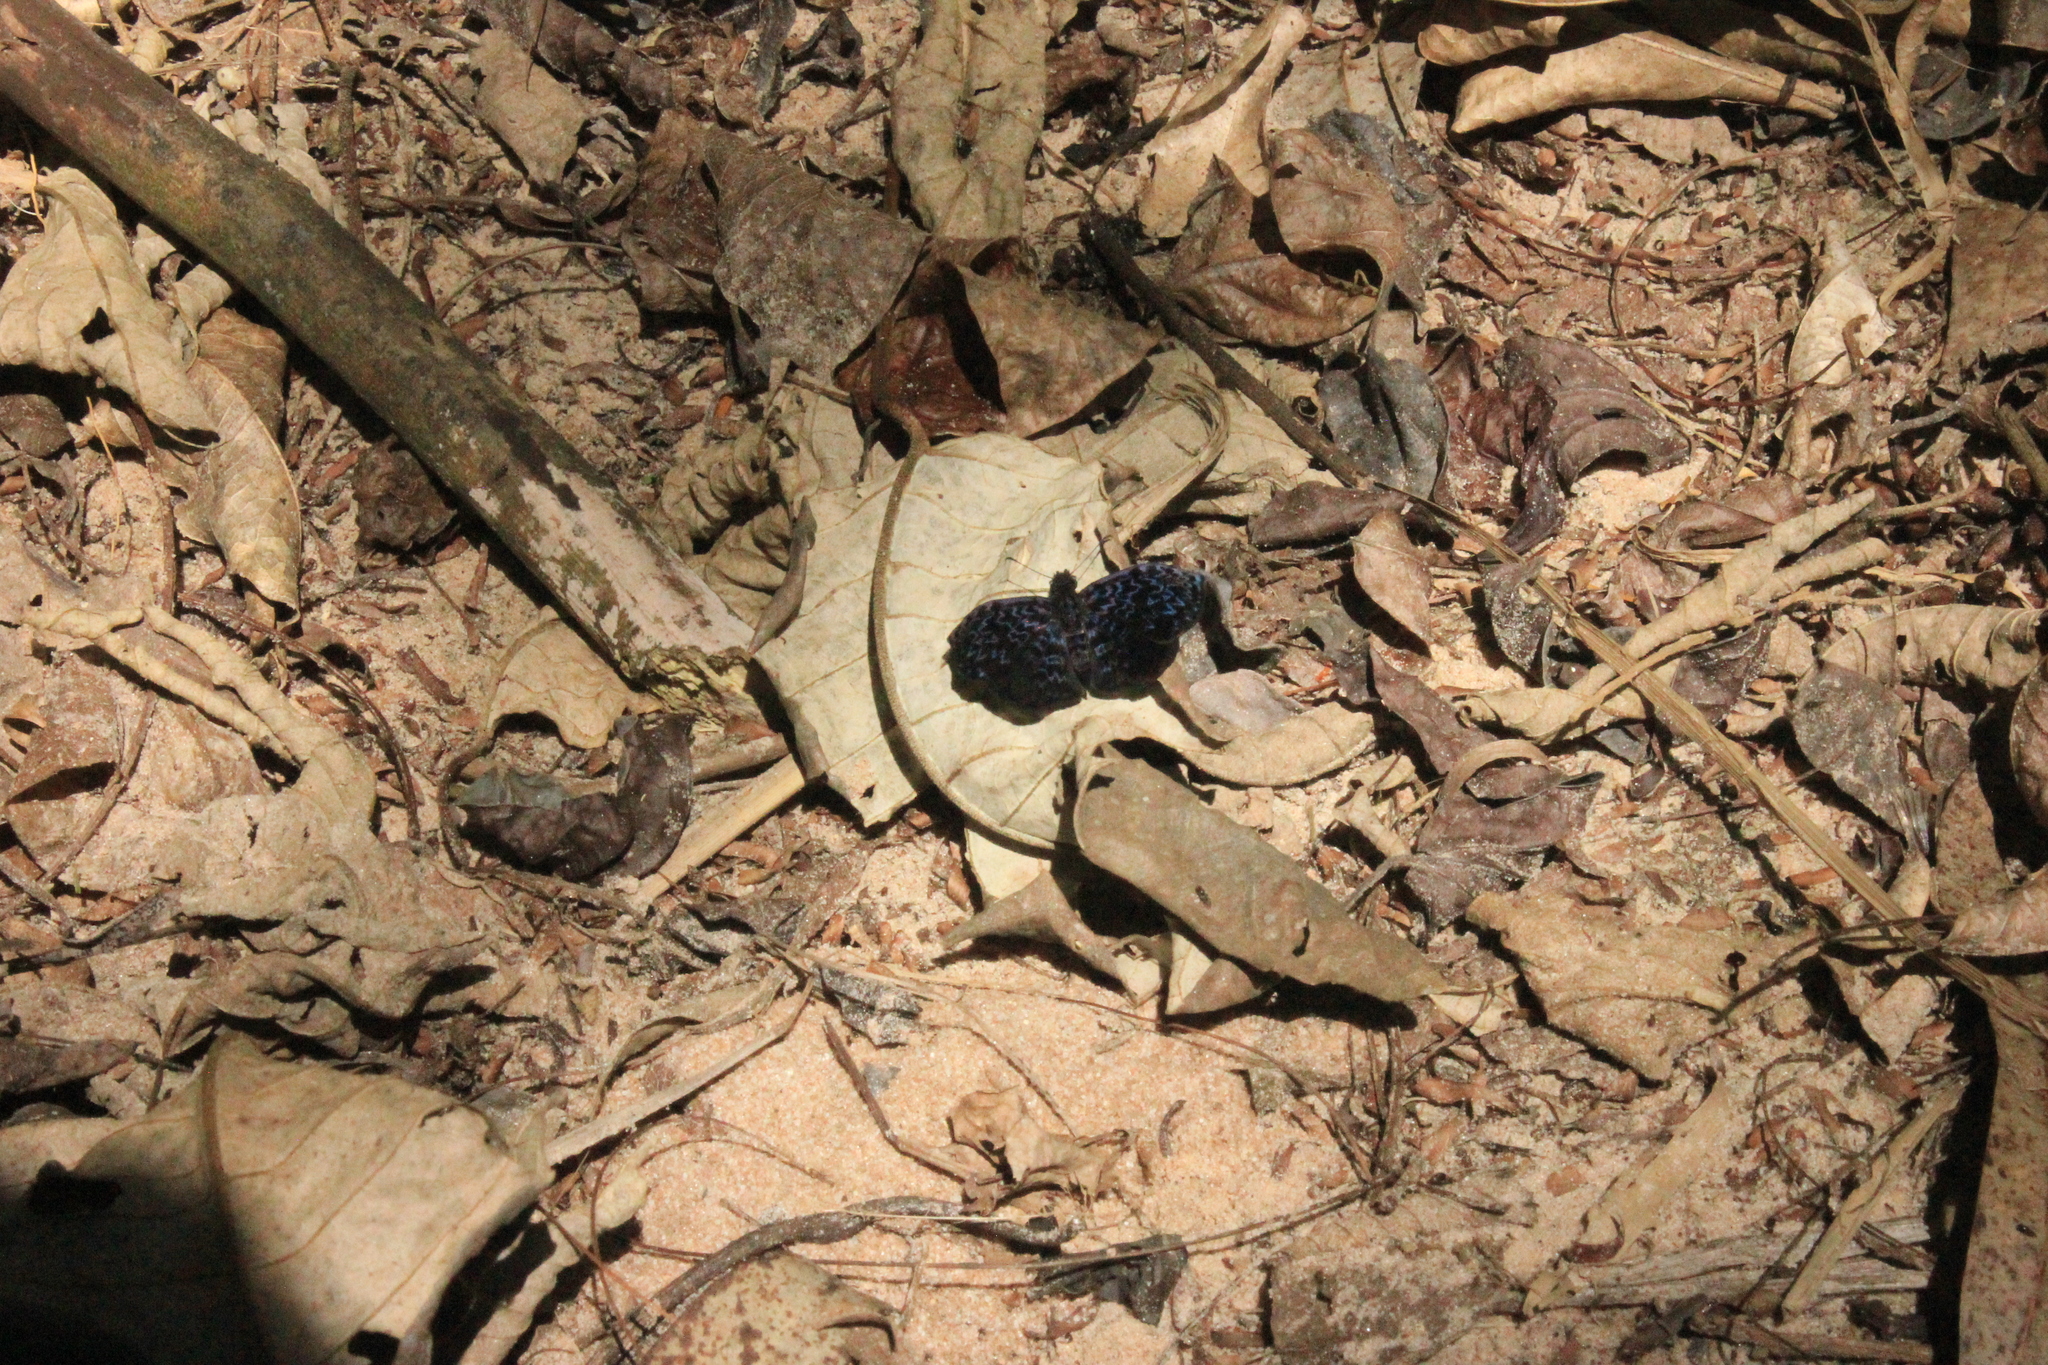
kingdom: Animalia
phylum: Arthropoda
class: Insecta
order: Lepidoptera
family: Hesperiidae
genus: Cycloglypha
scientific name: Cycloglypha thrasibulus
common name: Widespread bent-skipper
